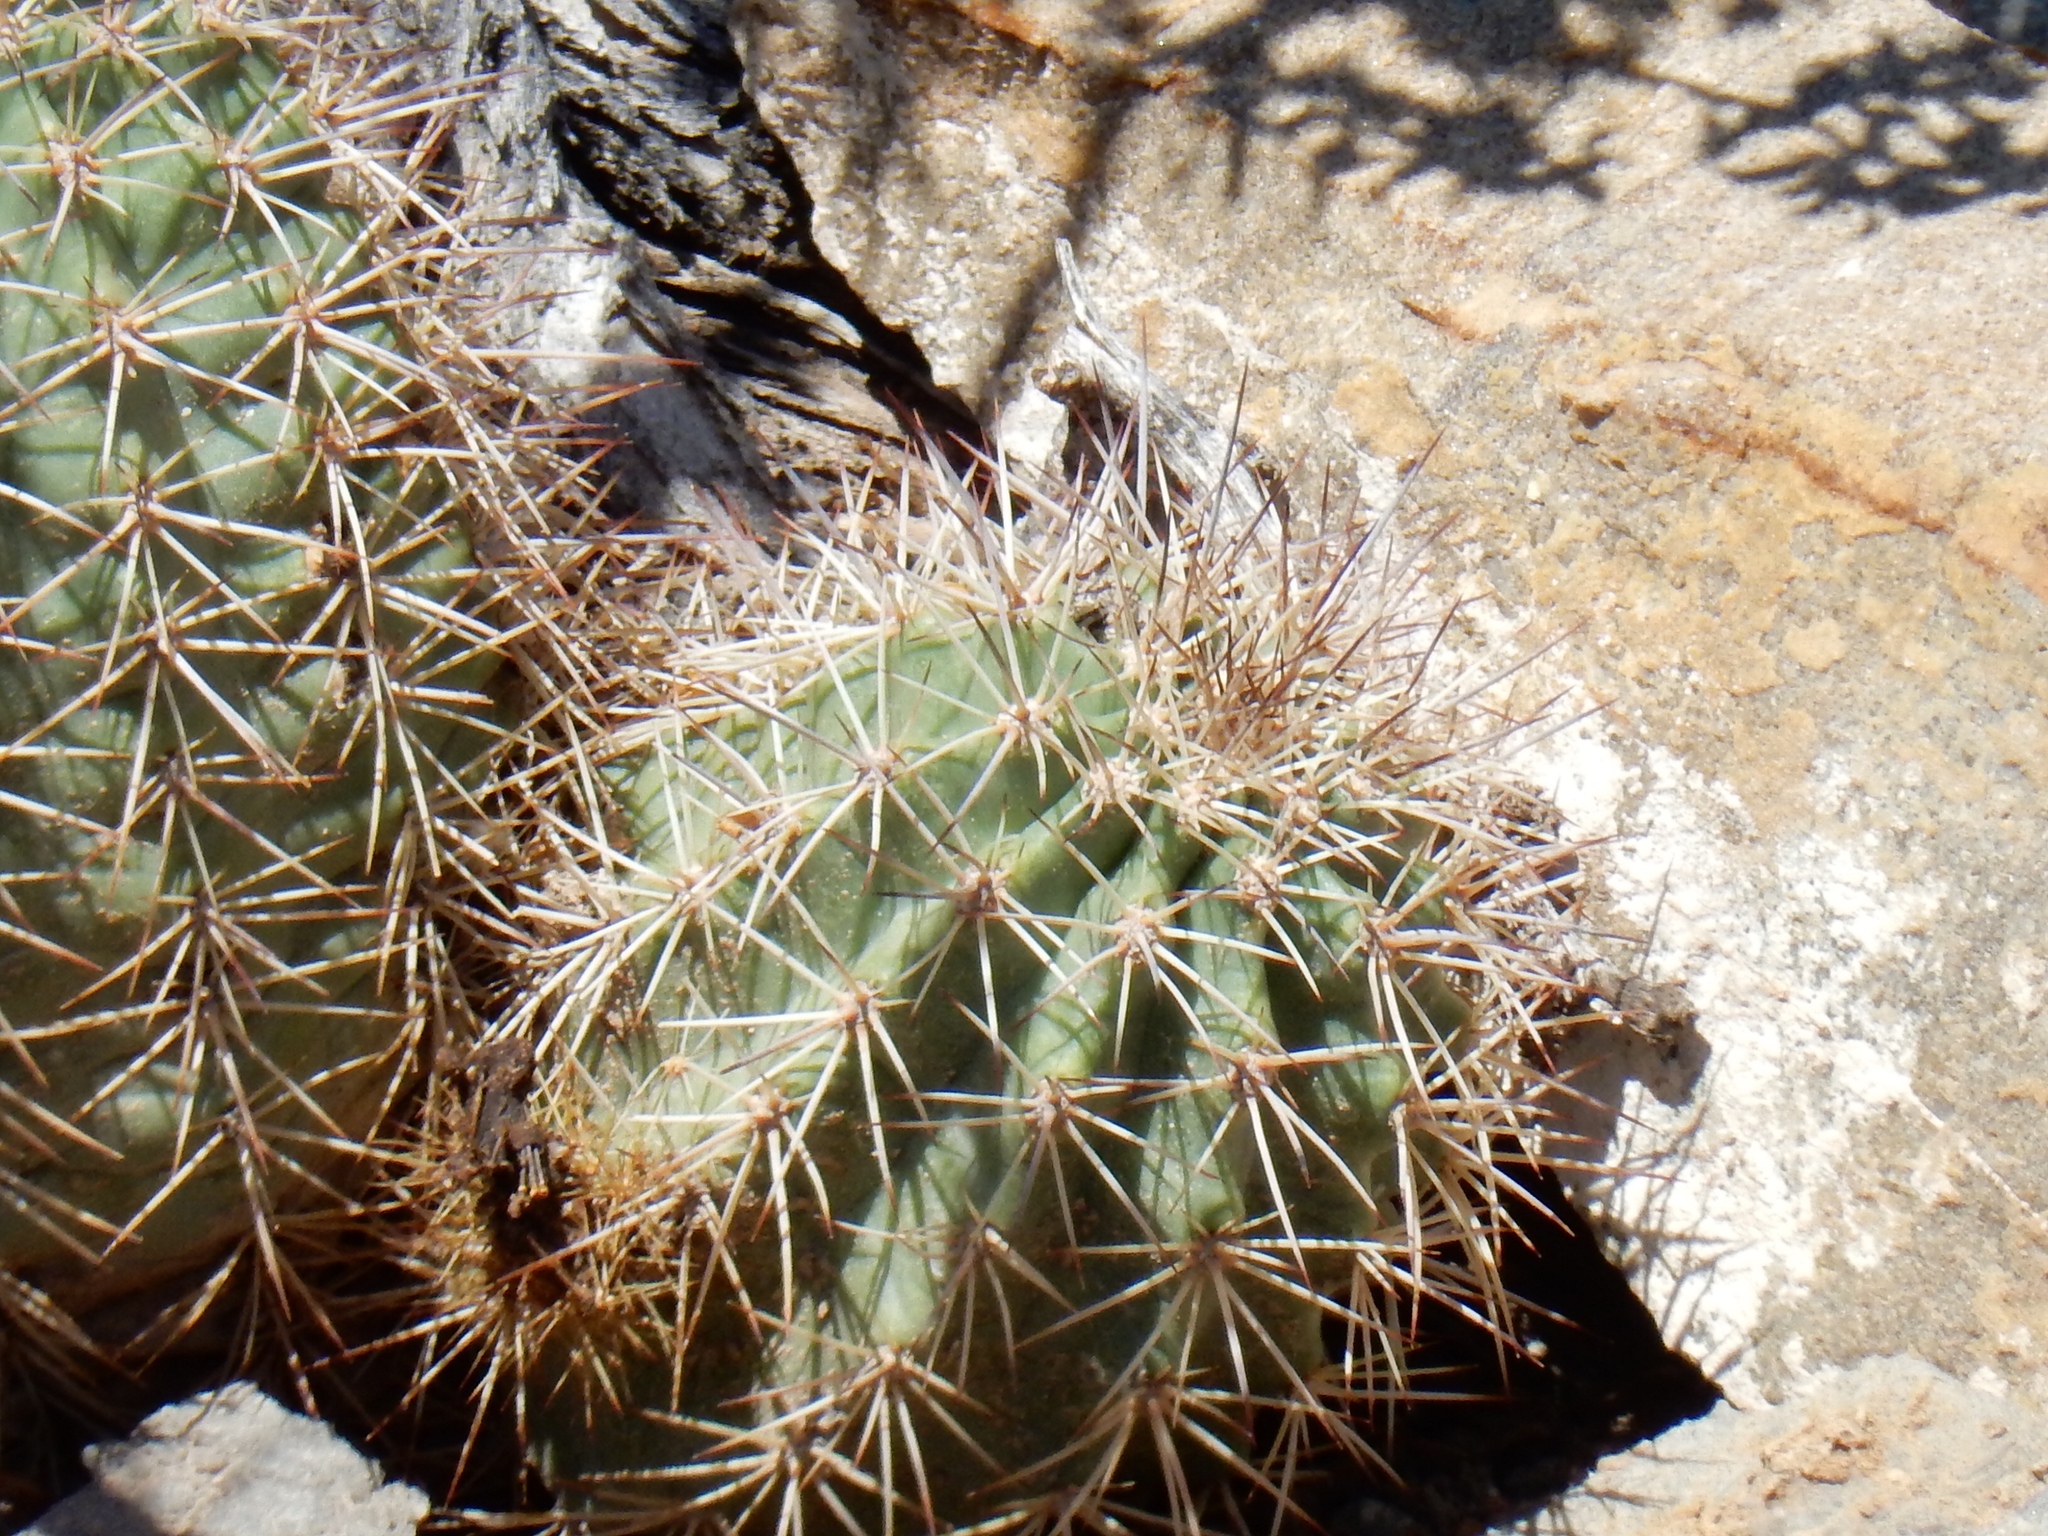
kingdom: Plantae
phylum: Tracheophyta
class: Magnoliopsida
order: Caryophyllales
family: Cactaceae
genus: Echinocereus
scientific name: Echinocereus coccineus
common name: Scarlet hedgehog cactus
